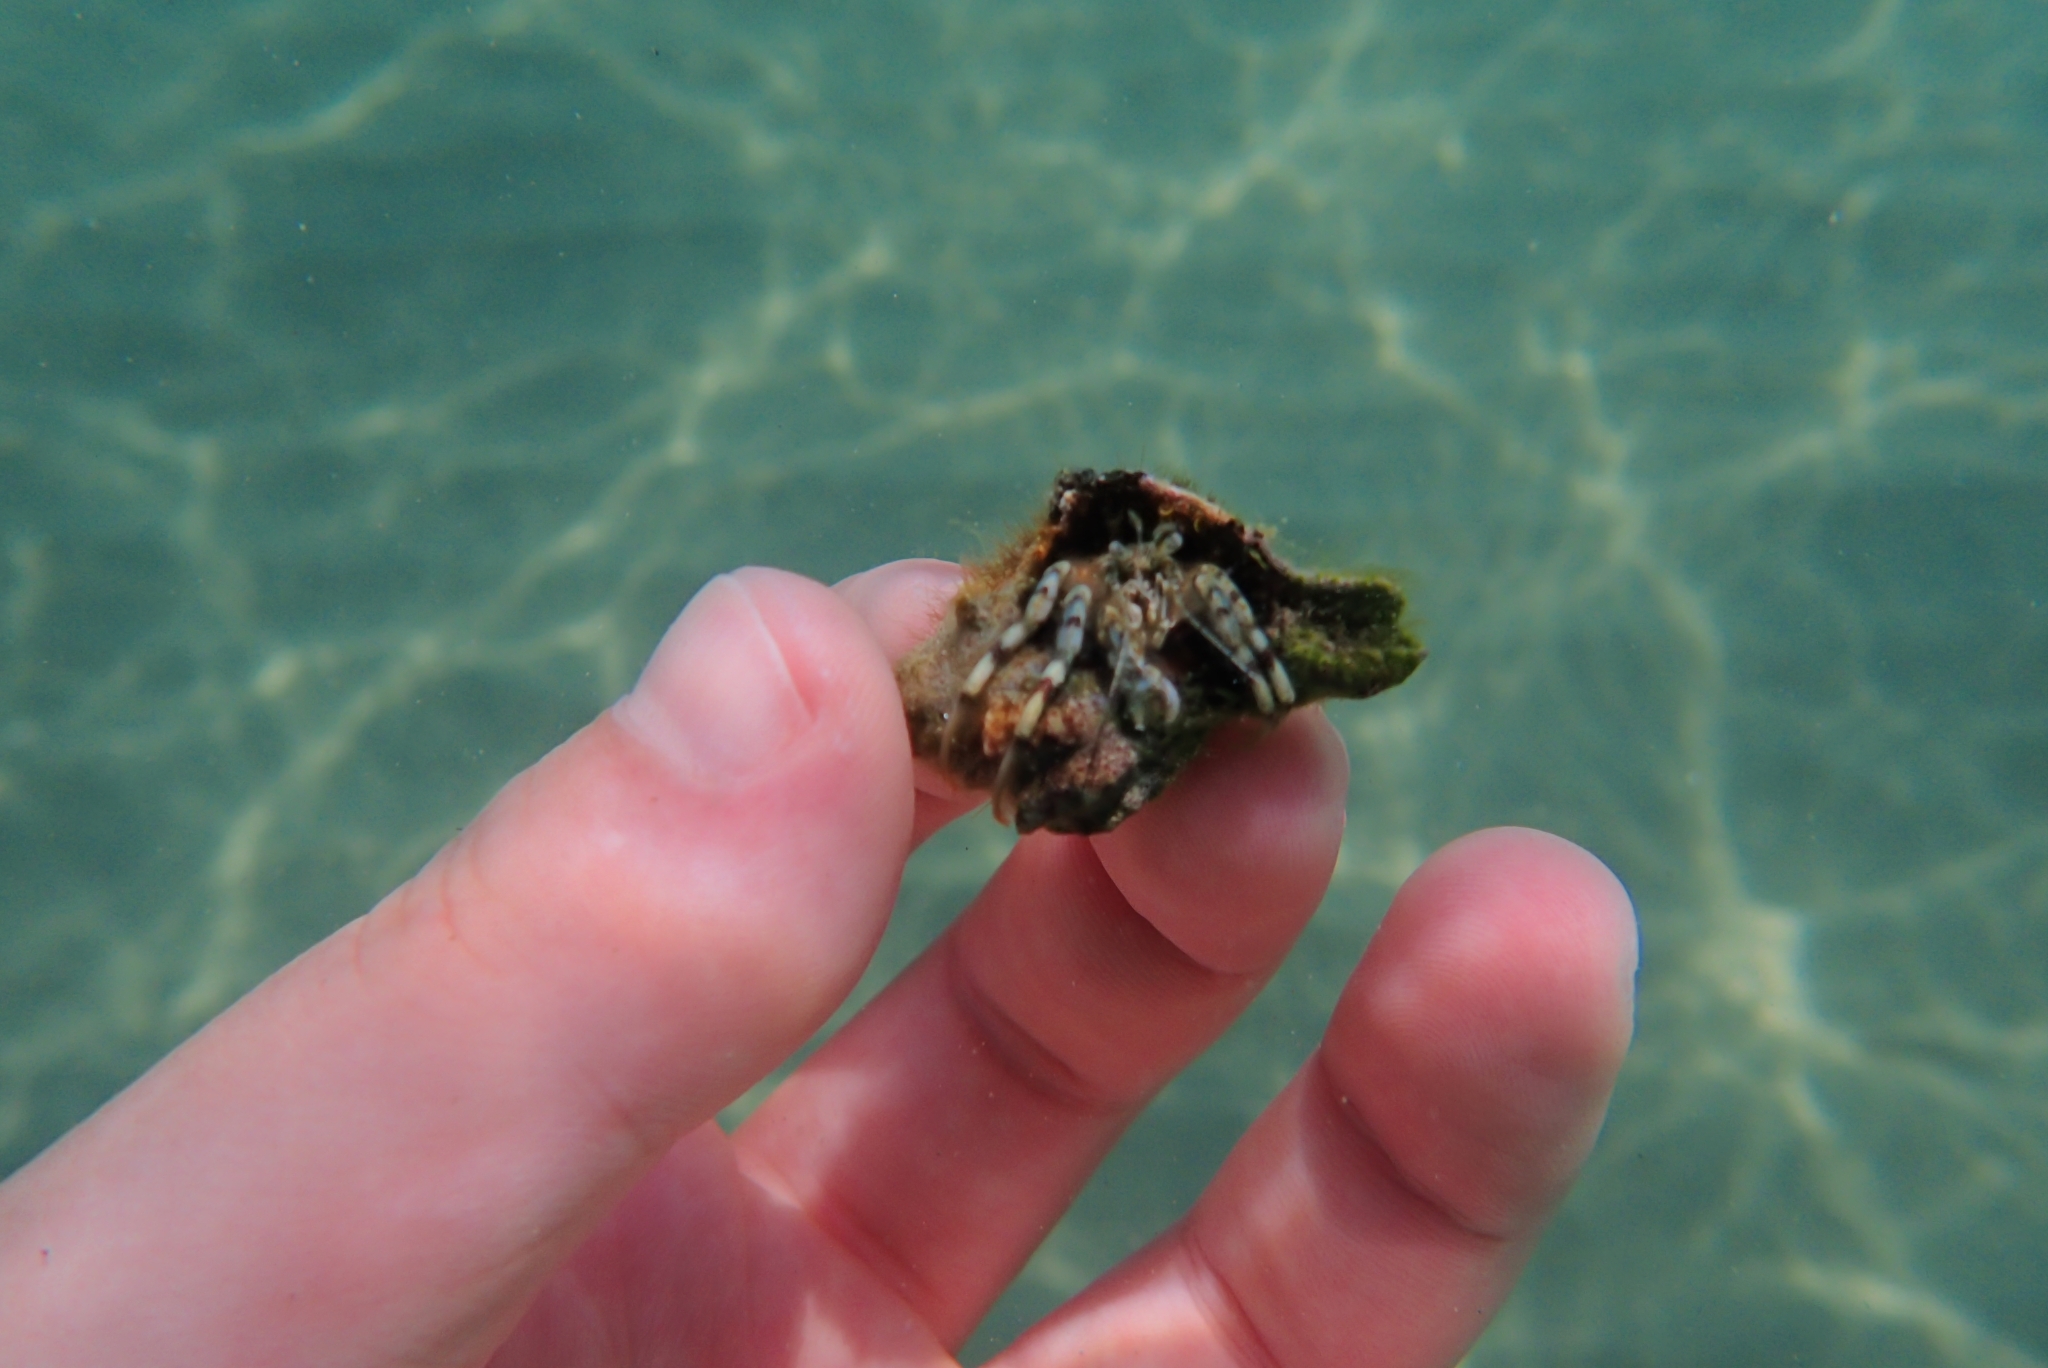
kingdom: Animalia
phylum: Arthropoda
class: Malacostraca
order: Decapoda
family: Diogenidae
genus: Diogenes
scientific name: Diogenes pugilator
